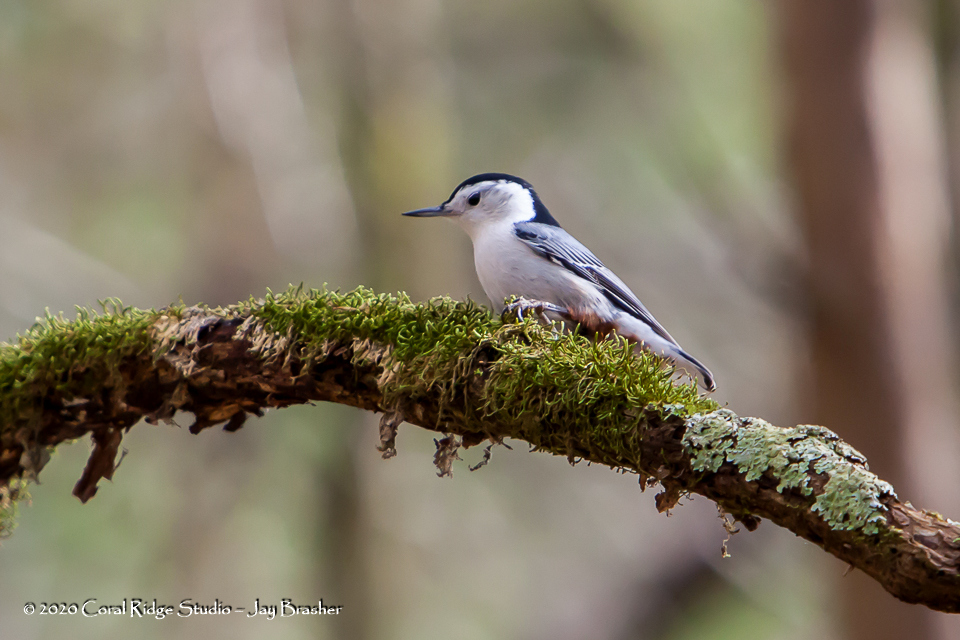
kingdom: Animalia
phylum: Chordata
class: Aves
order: Passeriformes
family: Sittidae
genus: Sitta
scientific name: Sitta carolinensis
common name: White-breasted nuthatch
